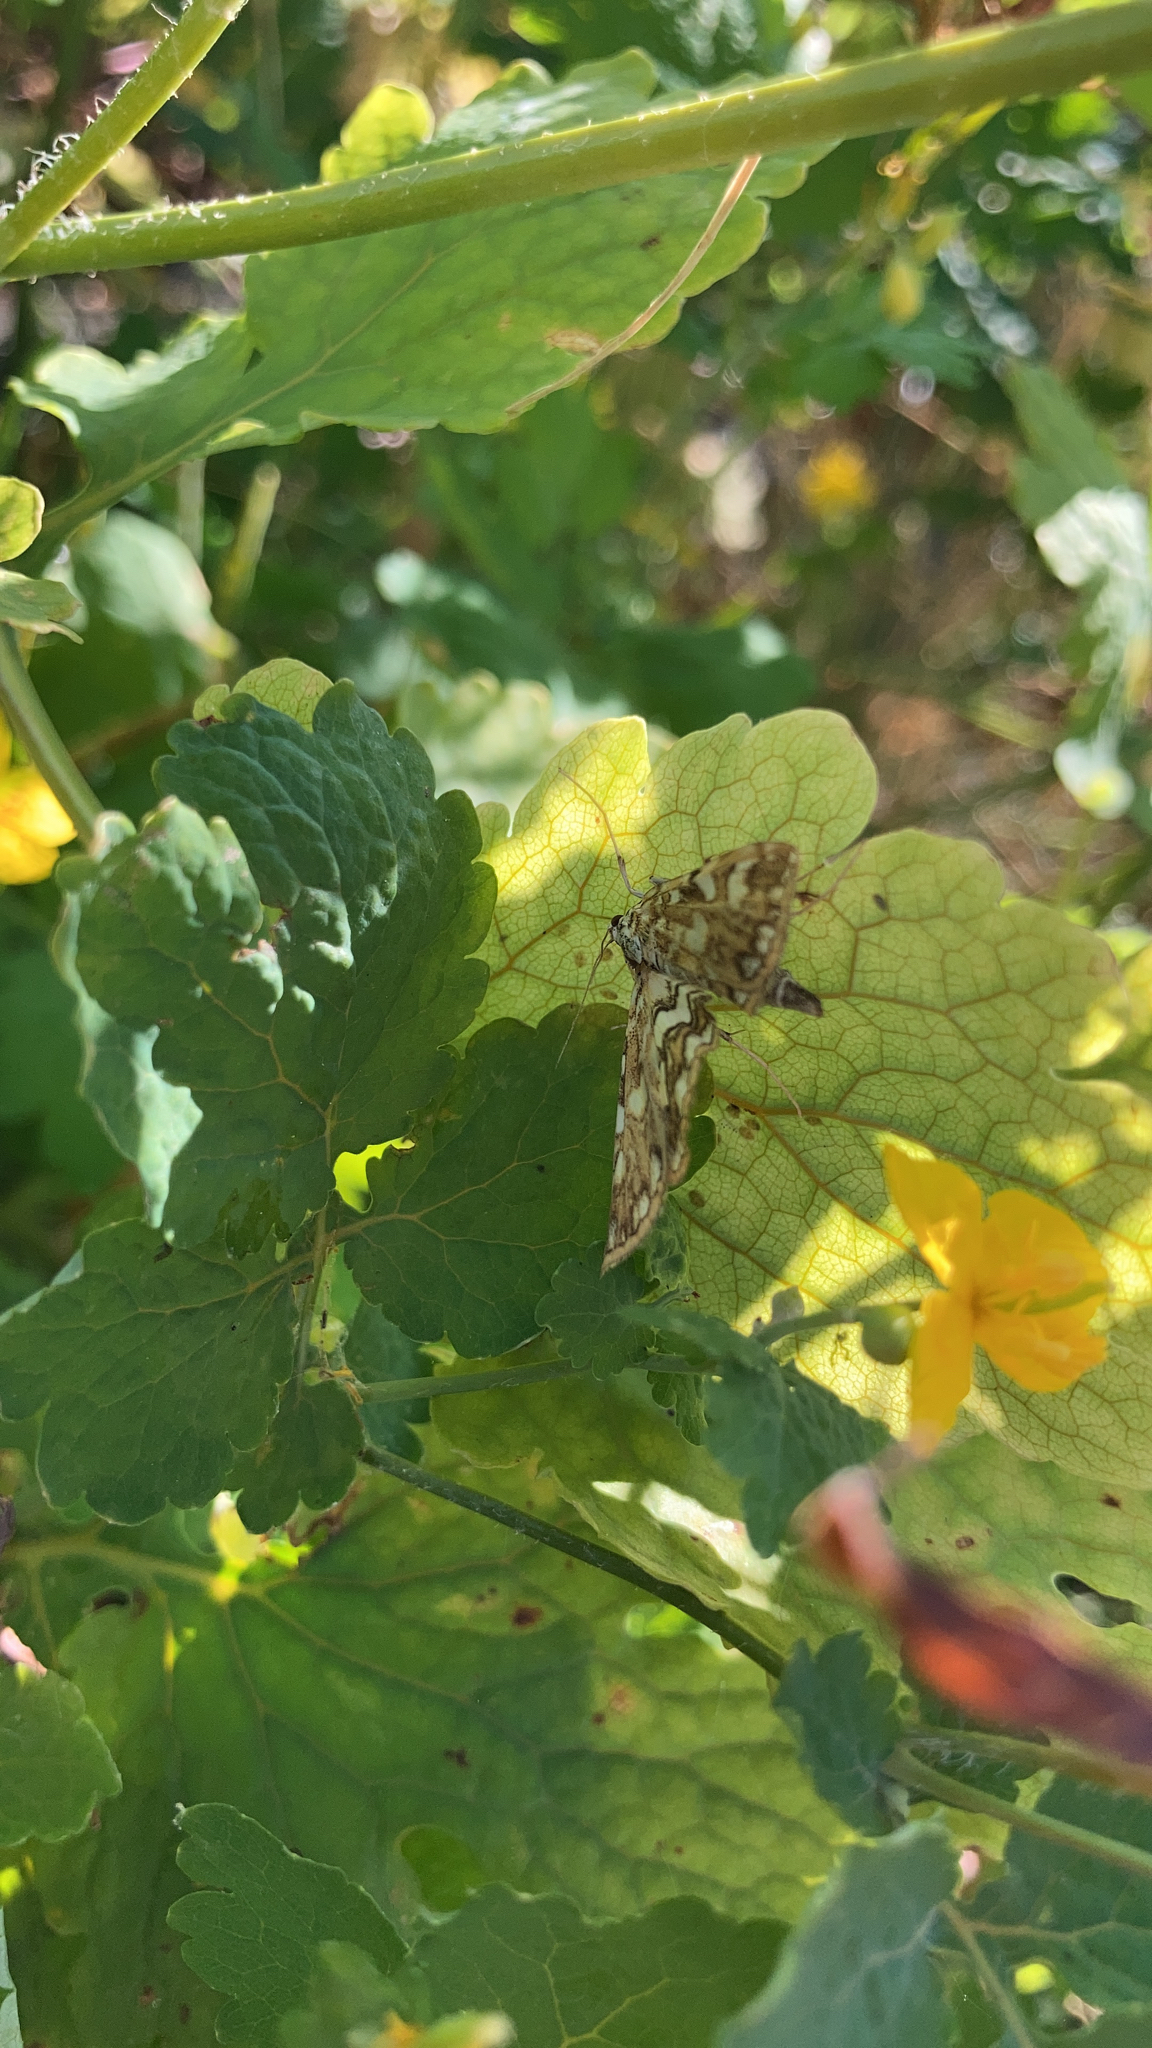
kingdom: Animalia
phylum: Arthropoda
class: Insecta
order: Lepidoptera
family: Crambidae
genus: Elophila
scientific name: Elophila nymphaeata
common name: Brown china-mark
